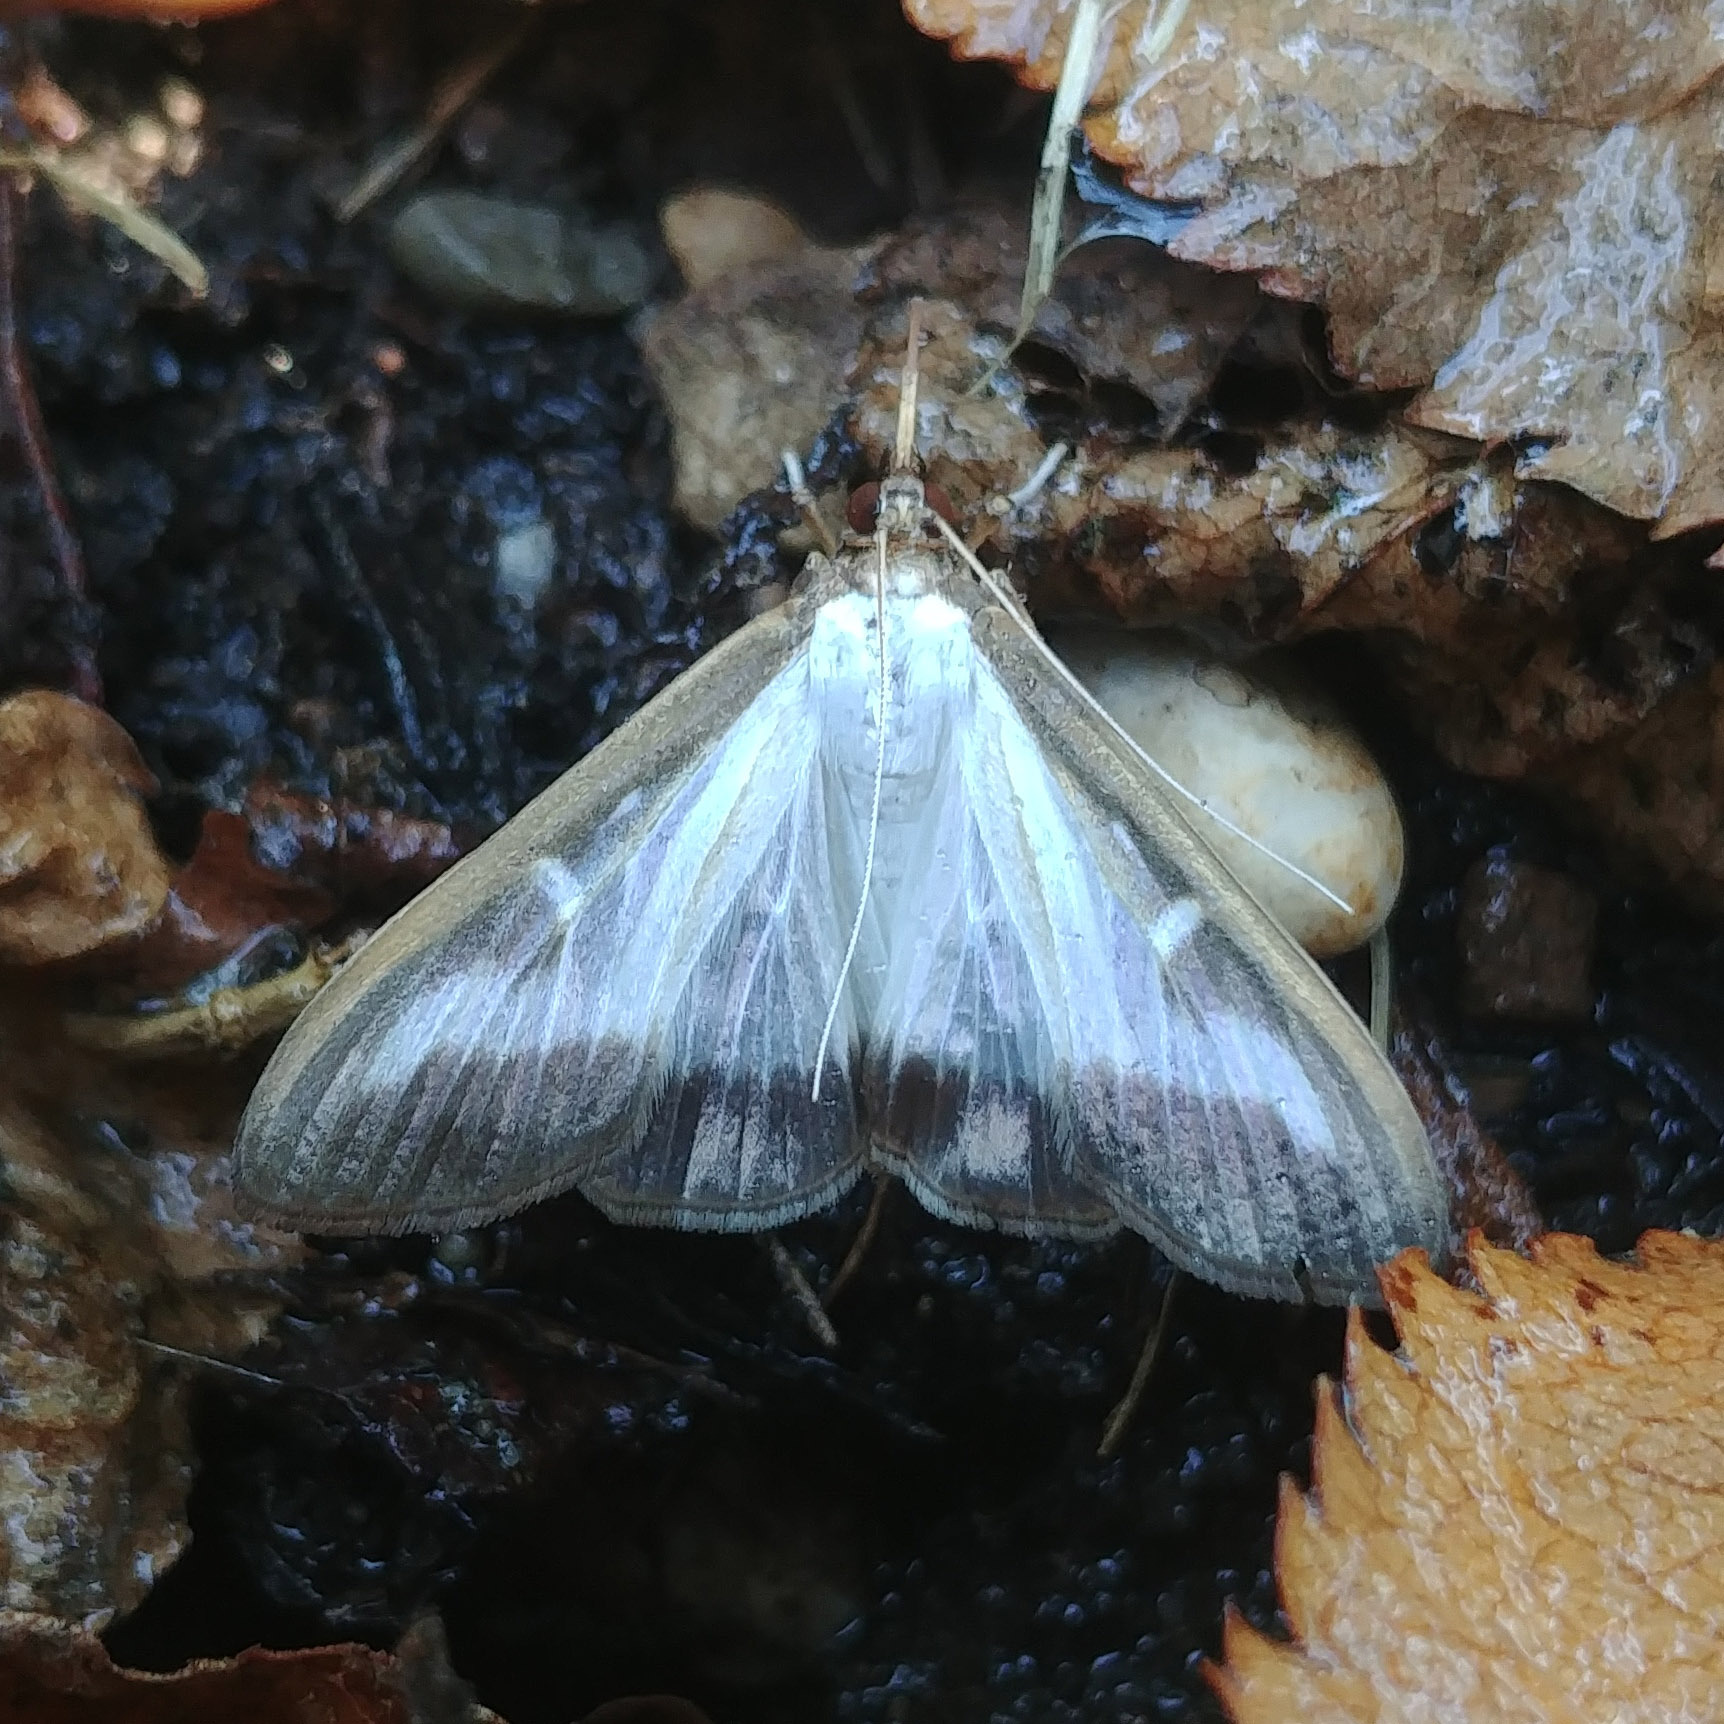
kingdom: Animalia
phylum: Arthropoda
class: Insecta
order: Lepidoptera
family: Crambidae
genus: Cydalima
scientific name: Cydalima perspectalis
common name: Box tree moth
